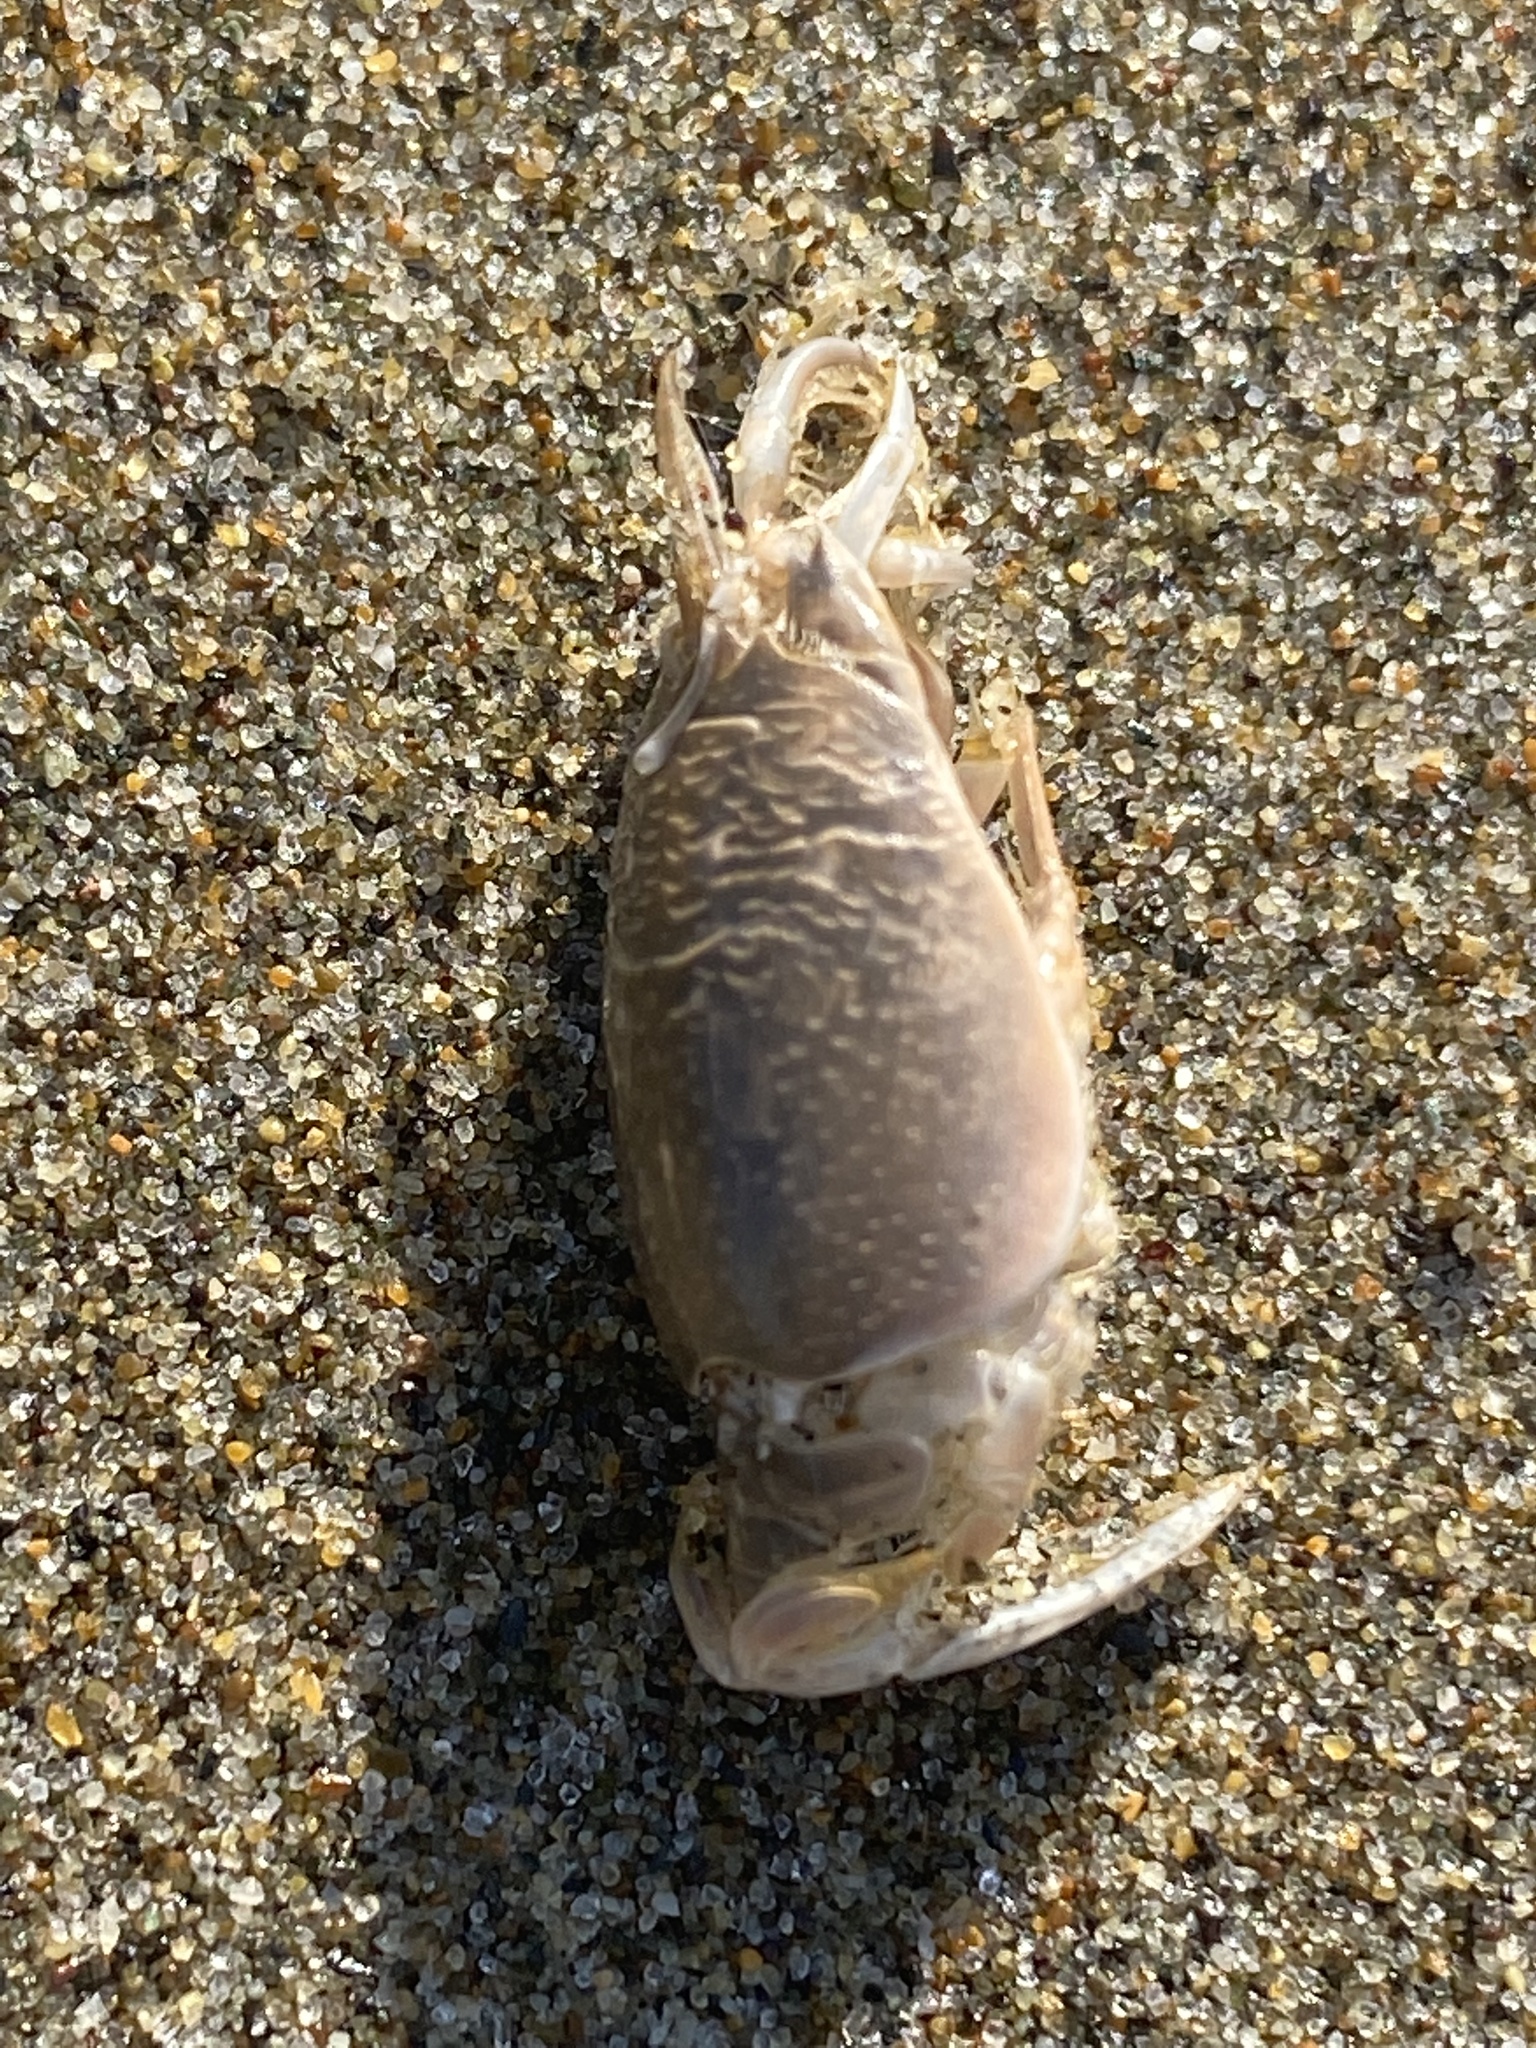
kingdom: Animalia
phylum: Arthropoda
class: Malacostraca
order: Decapoda
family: Hippidae
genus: Emerita
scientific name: Emerita analoga
